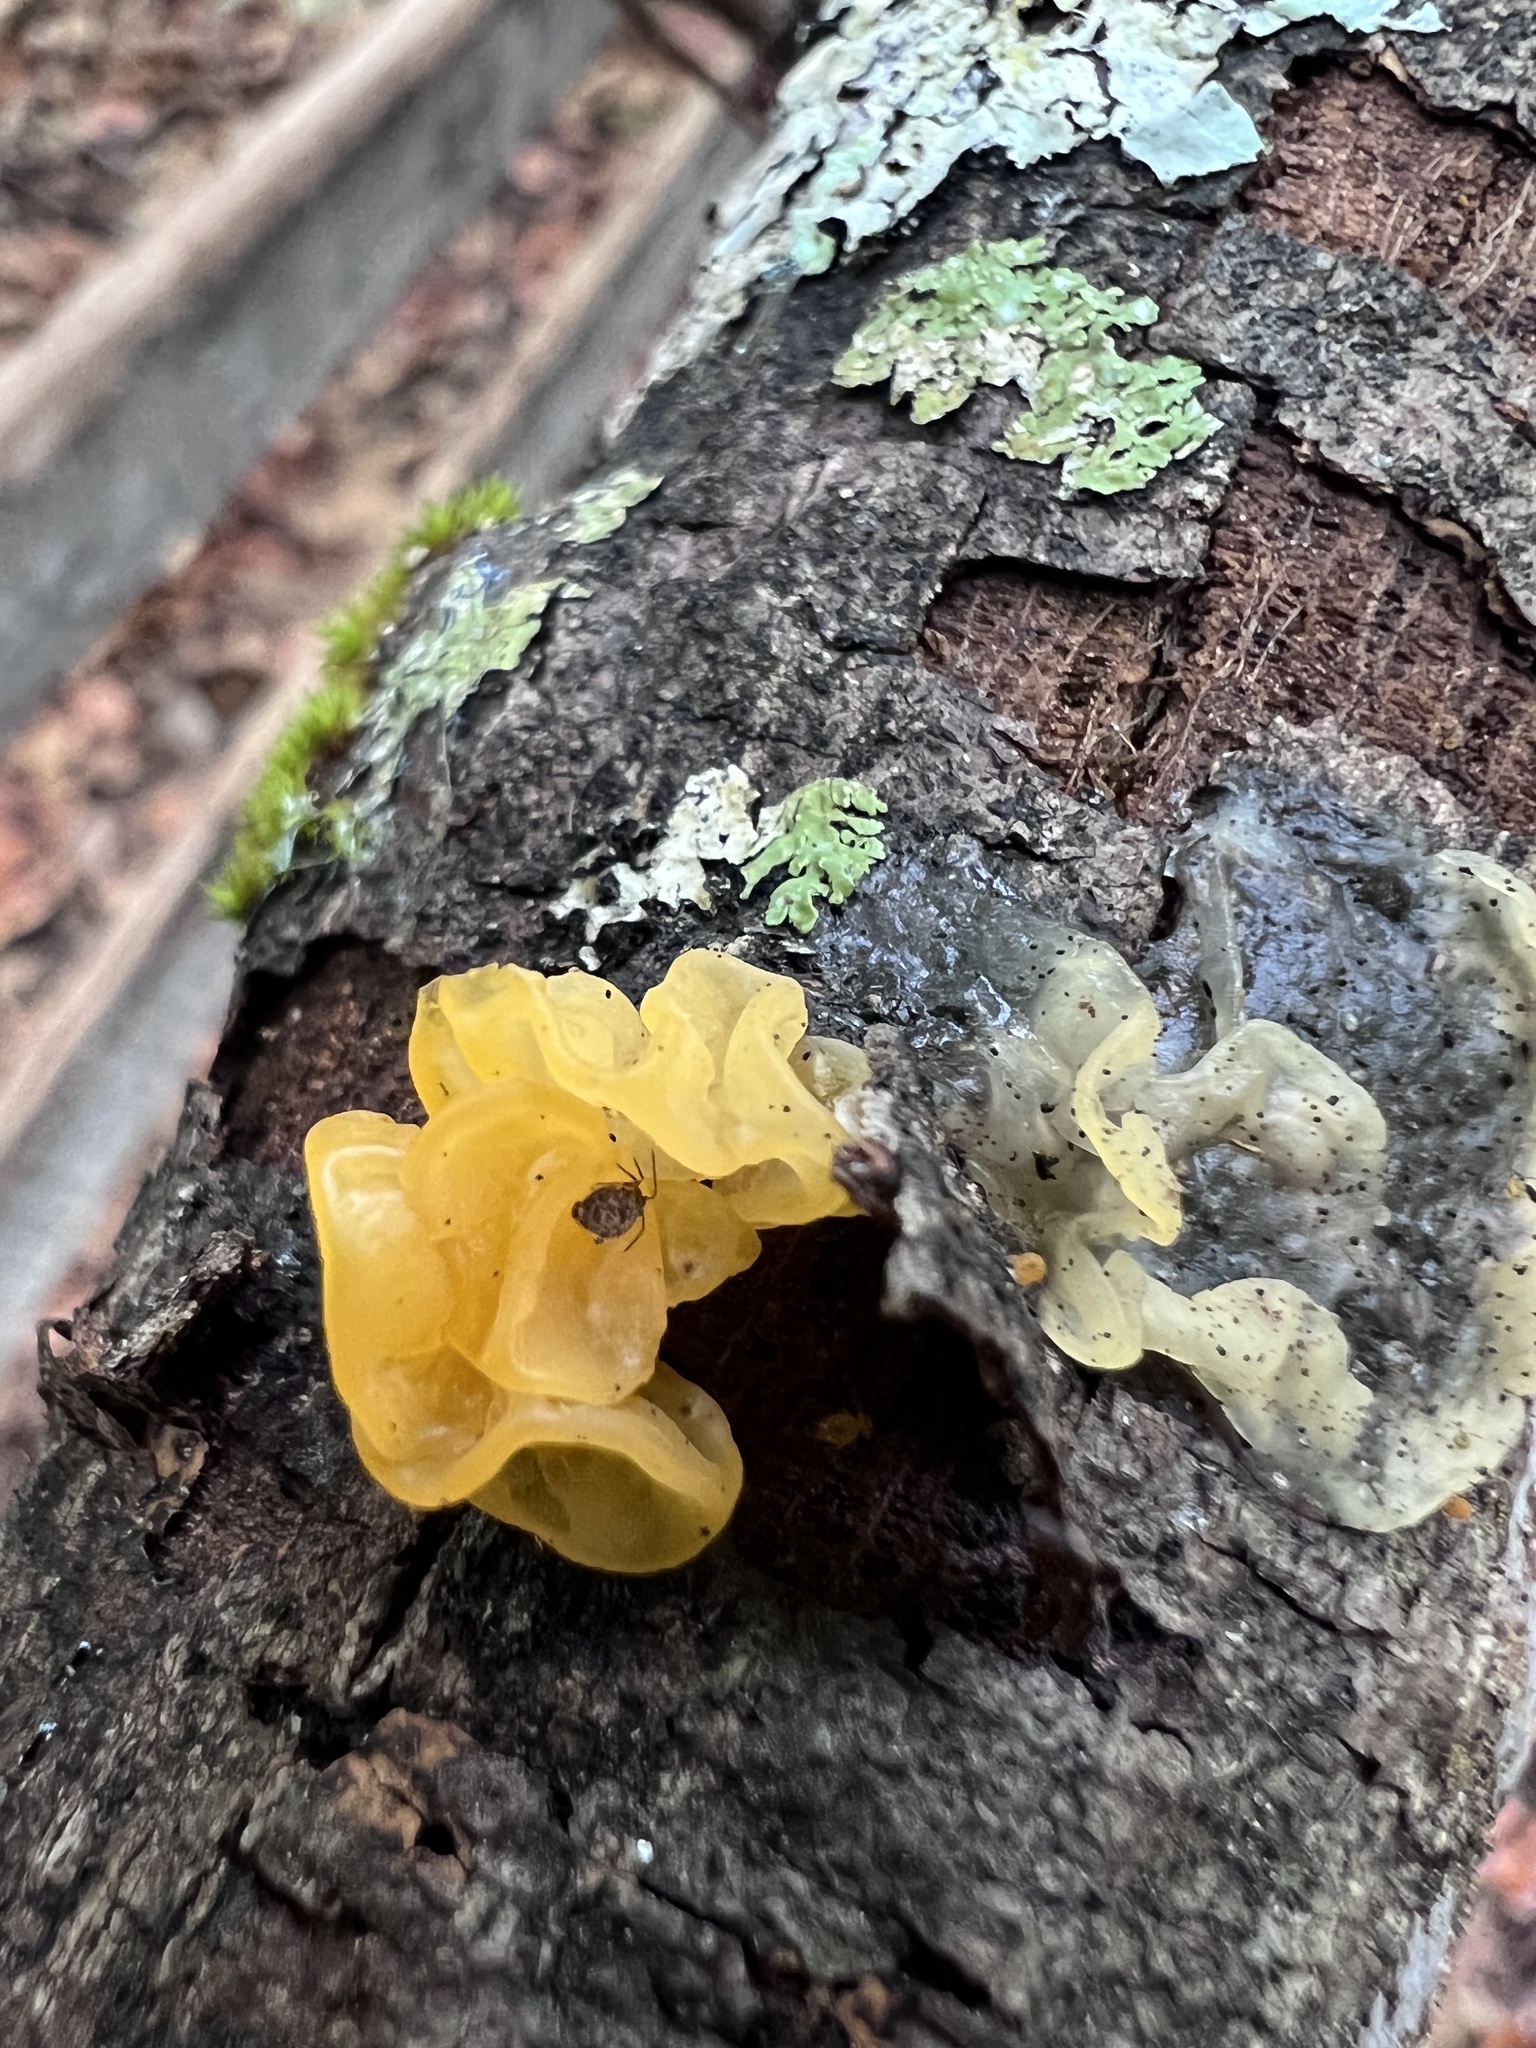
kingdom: Fungi
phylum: Basidiomycota
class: Tremellomycetes
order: Tremellales
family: Tremellaceae
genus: Tremella
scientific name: Tremella mesenterica
